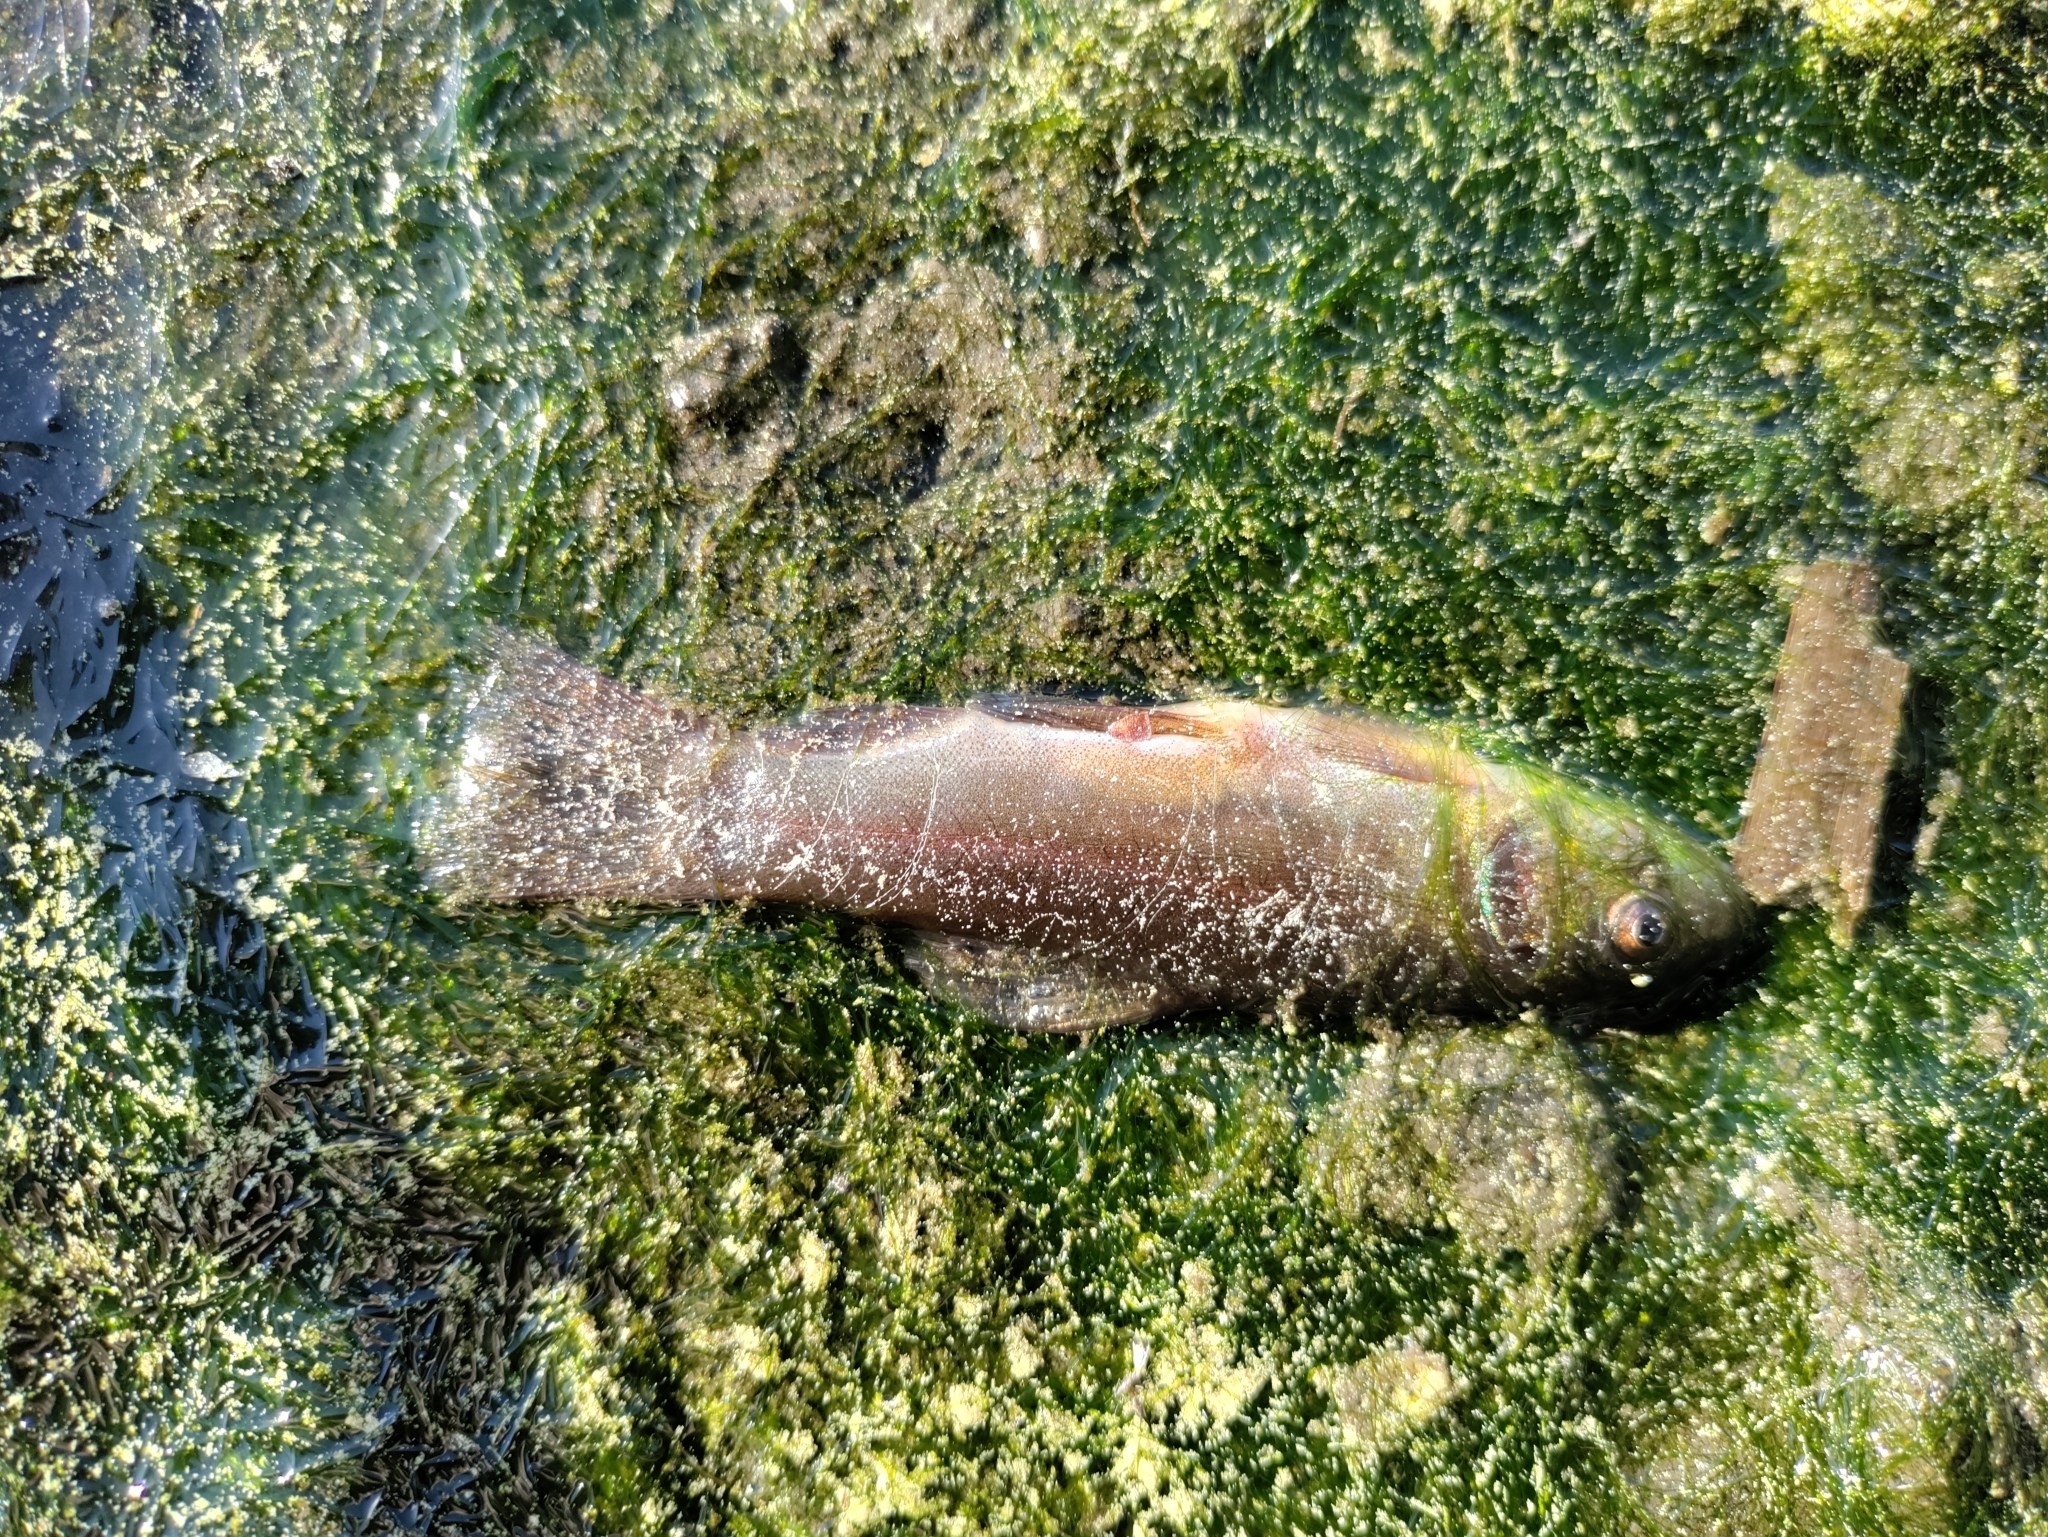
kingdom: Animalia
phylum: Chordata
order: Cypriniformes
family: Cyprinidae
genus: Tinca
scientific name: Tinca tinca
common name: Tench
